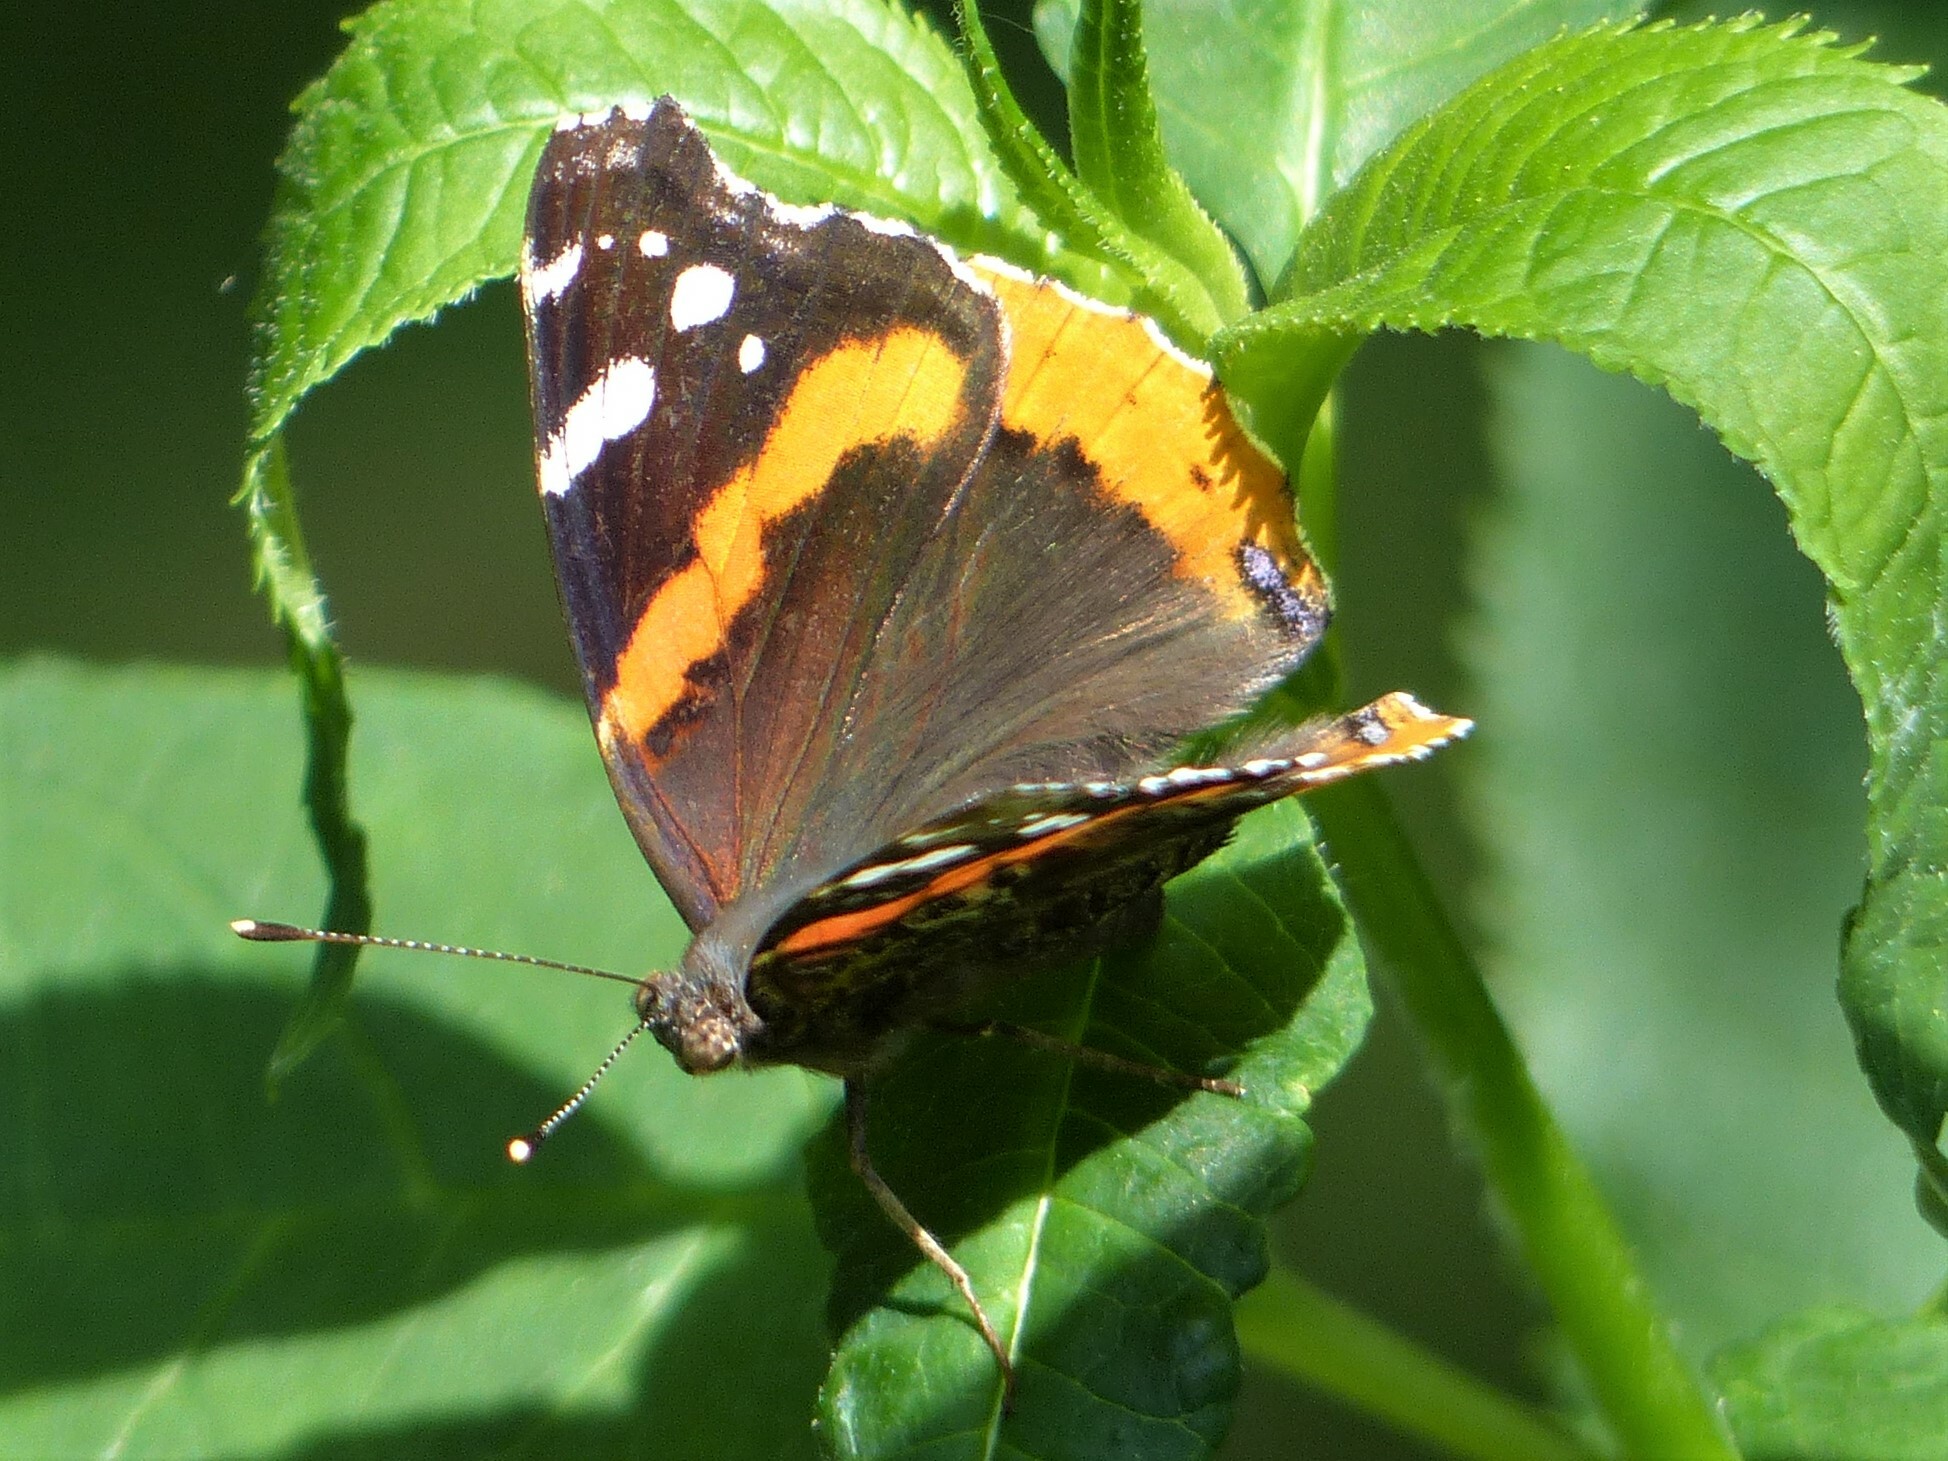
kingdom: Animalia
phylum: Arthropoda
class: Insecta
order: Lepidoptera
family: Nymphalidae
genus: Vanessa
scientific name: Vanessa atalanta
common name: Red admiral
